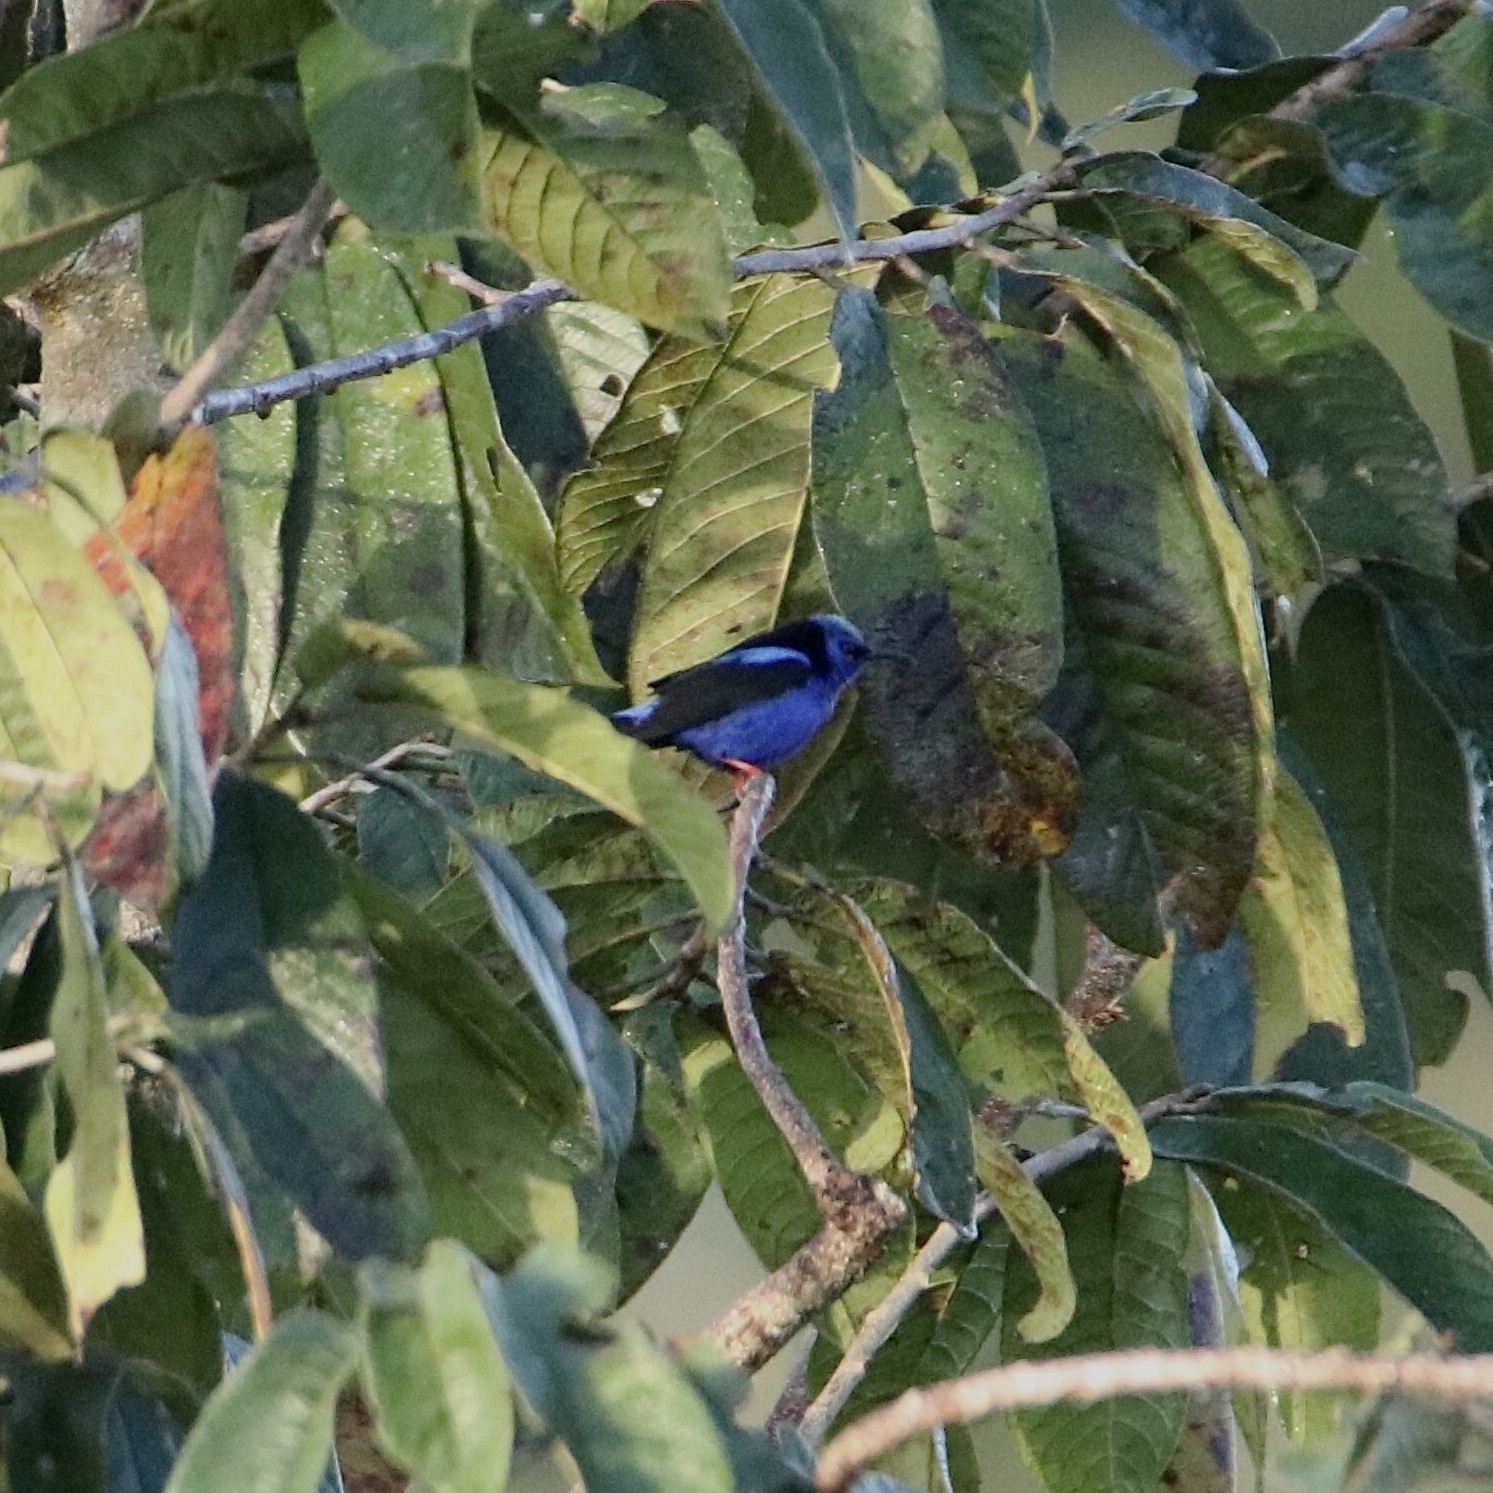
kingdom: Animalia
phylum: Chordata
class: Aves
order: Passeriformes
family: Thraupidae
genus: Cyanerpes
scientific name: Cyanerpes cyaneus
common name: Red-legged honeycreeper
